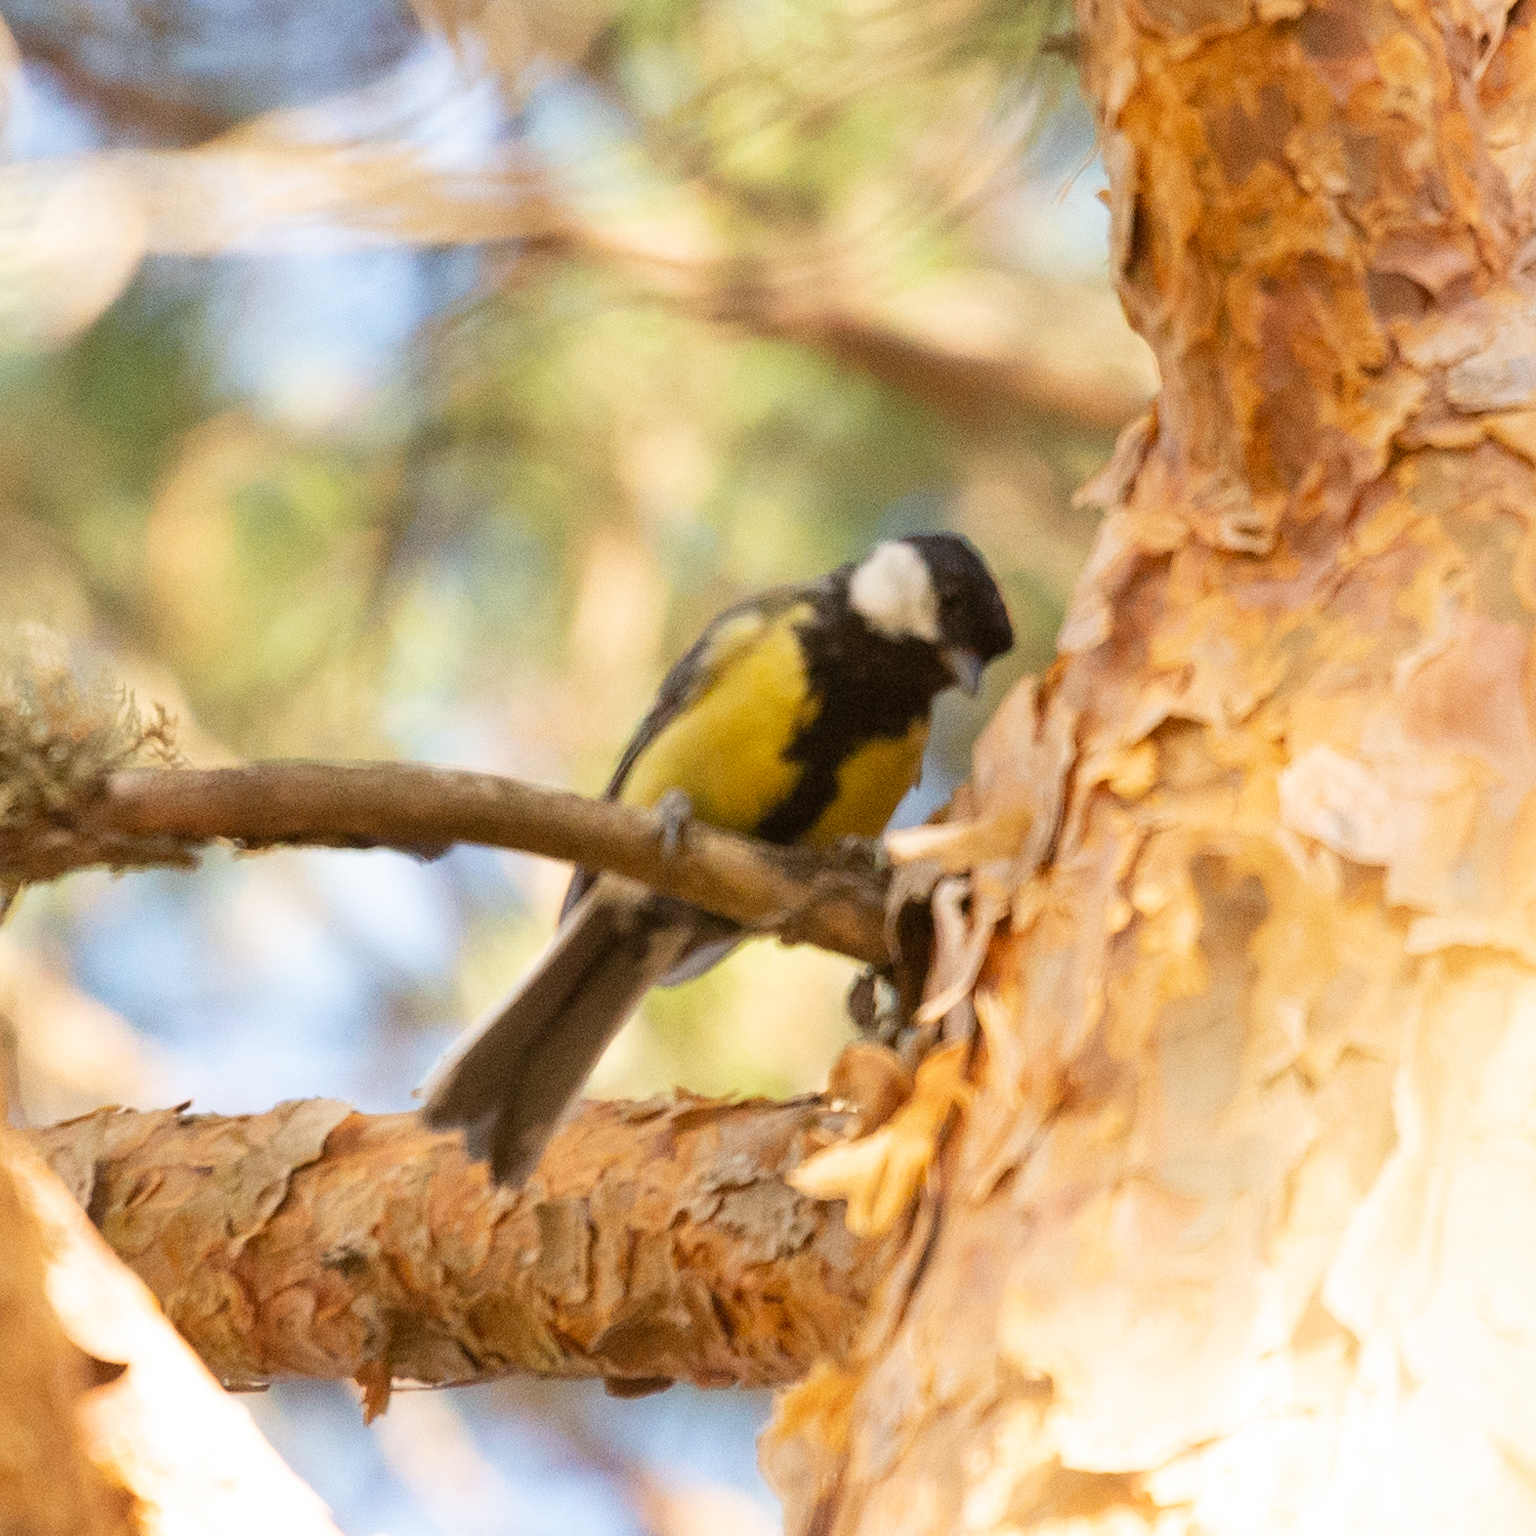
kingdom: Animalia
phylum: Chordata
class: Aves
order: Passeriformes
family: Paridae
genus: Parus
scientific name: Parus major
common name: Great tit
